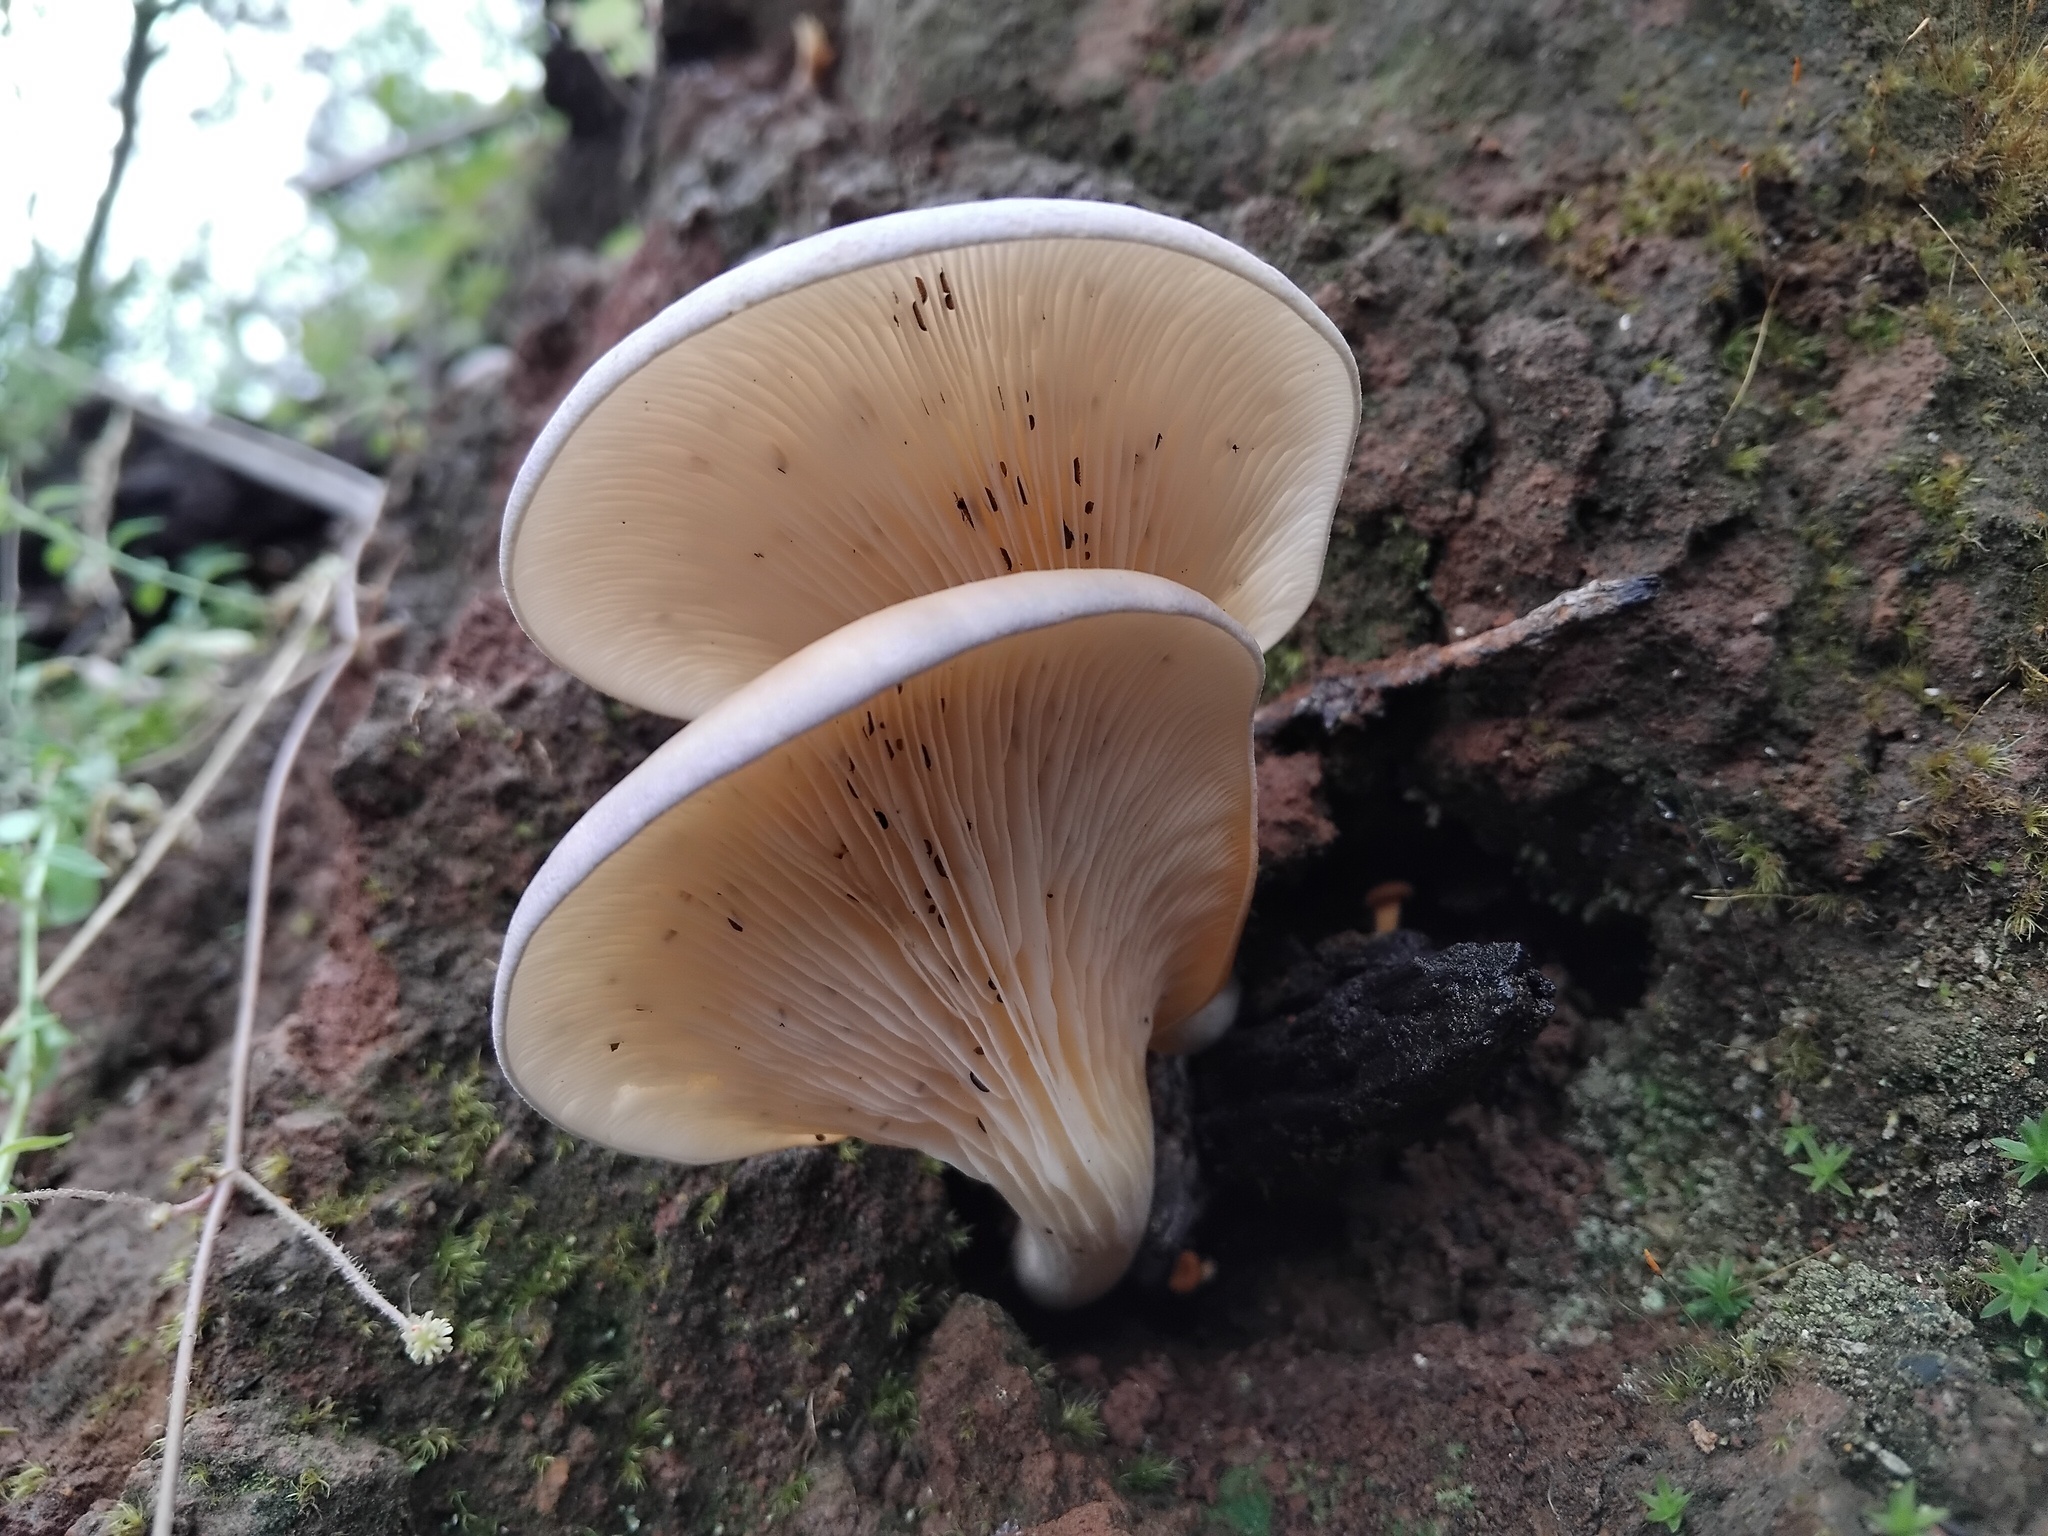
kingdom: Fungi
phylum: Basidiomycota
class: Agaricomycetes
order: Agaricales
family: Omphalotaceae
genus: Omphalotus
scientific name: Omphalotus nidiformis
